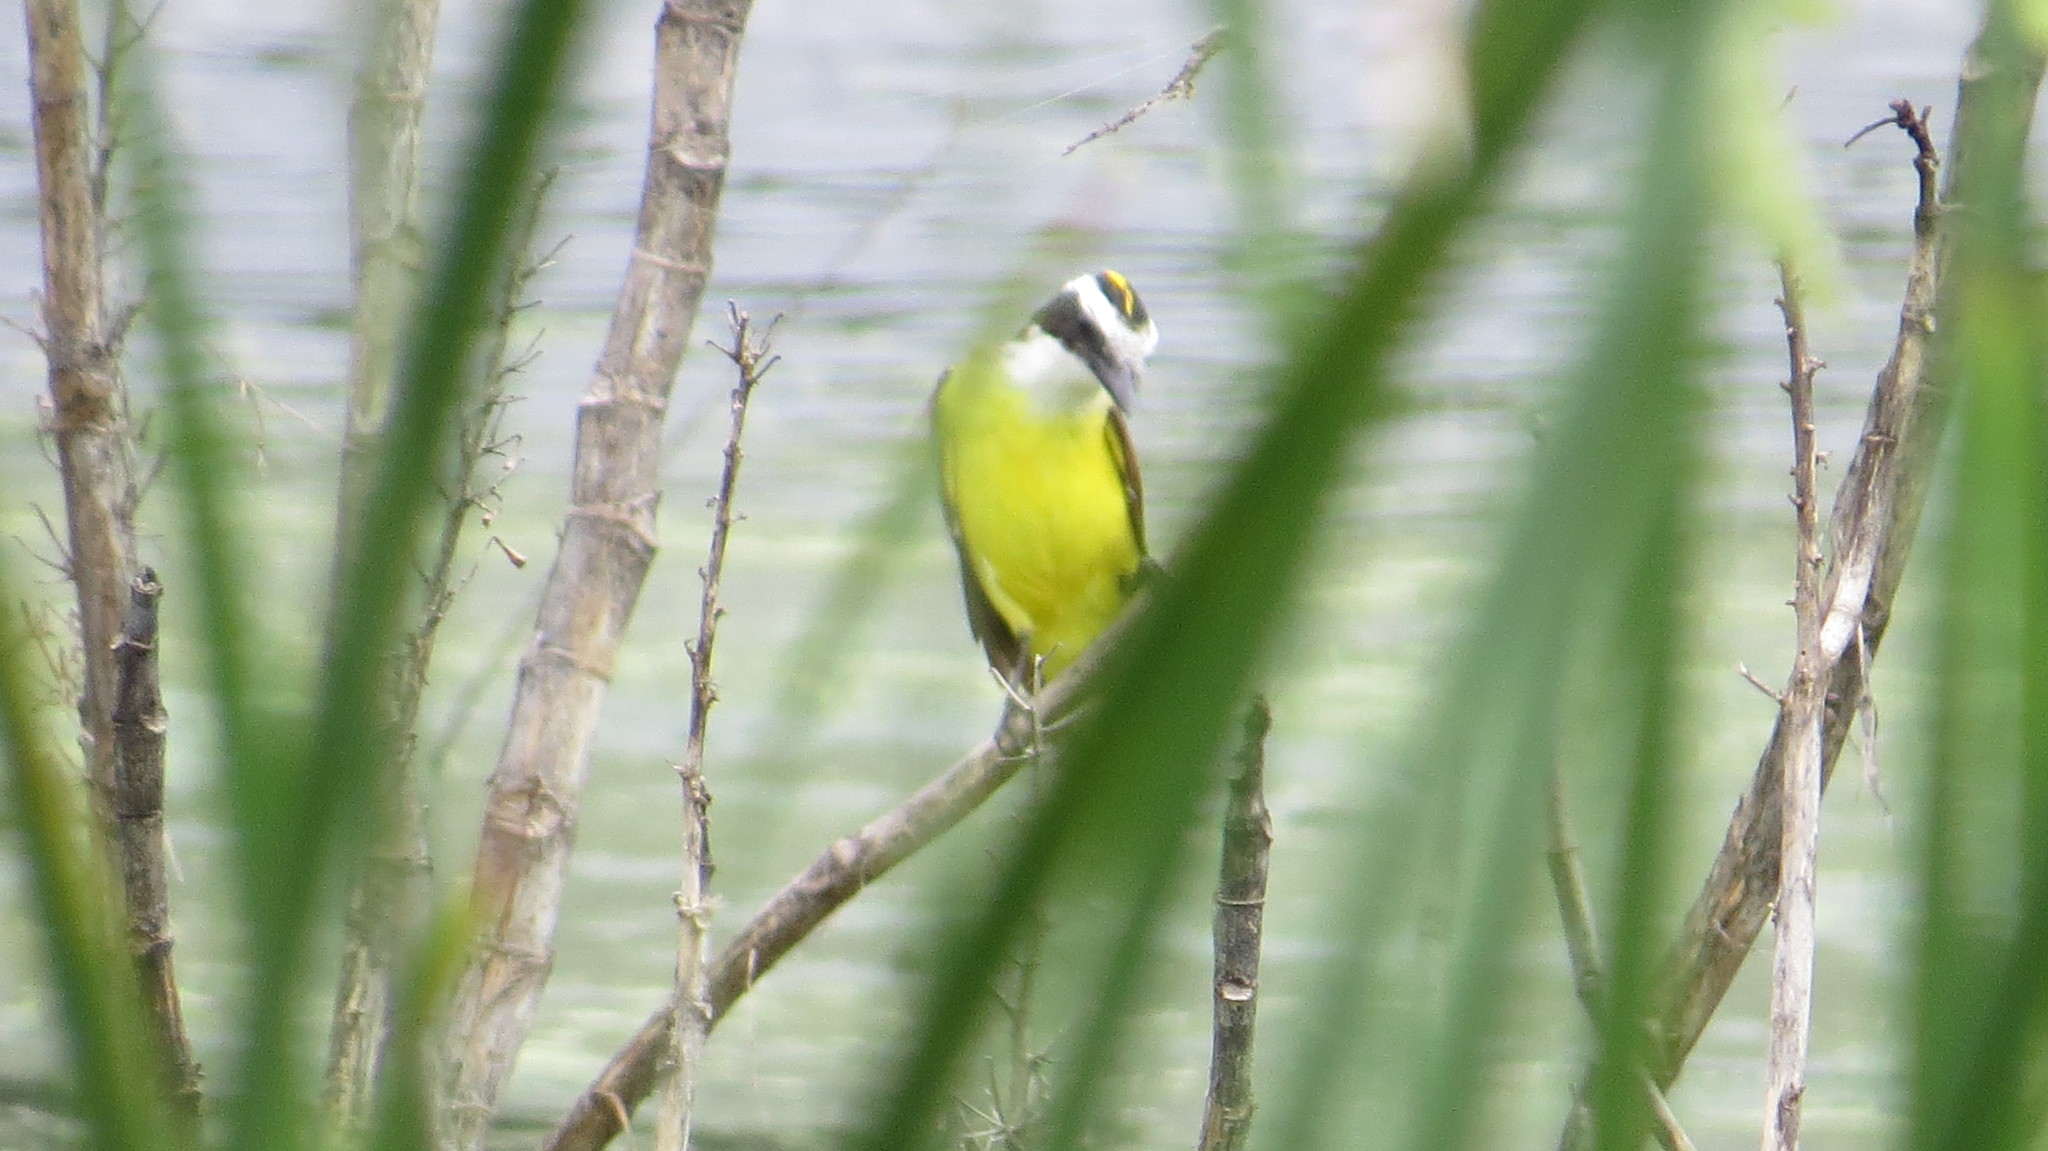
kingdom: Animalia
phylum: Chordata
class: Aves
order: Passeriformes
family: Tyrannidae
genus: Pitangus
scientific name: Pitangus sulphuratus
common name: Great kiskadee
